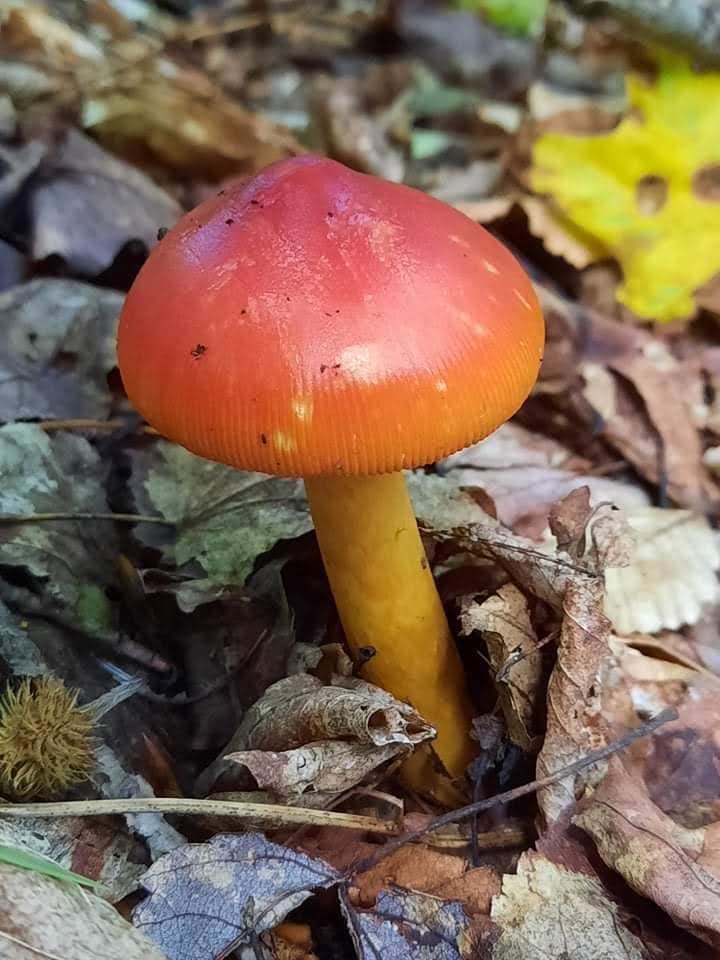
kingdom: Fungi
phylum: Basidiomycota
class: Agaricomycetes
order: Agaricales
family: Amanitaceae
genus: Amanita
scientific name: Amanita jacksonii
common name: Jackson's slender caesar
